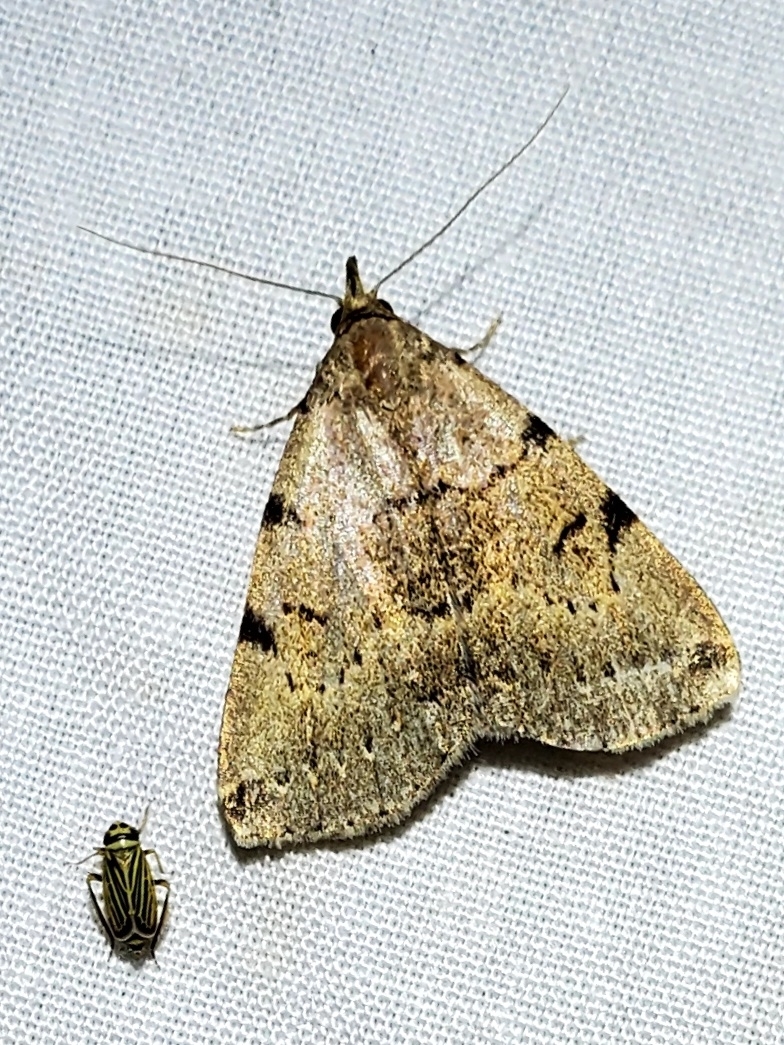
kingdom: Animalia
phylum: Arthropoda
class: Insecta
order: Lepidoptera
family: Erebidae
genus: Zanclognatha
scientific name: Zanclognatha lituralis
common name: Lettered fan-foot
